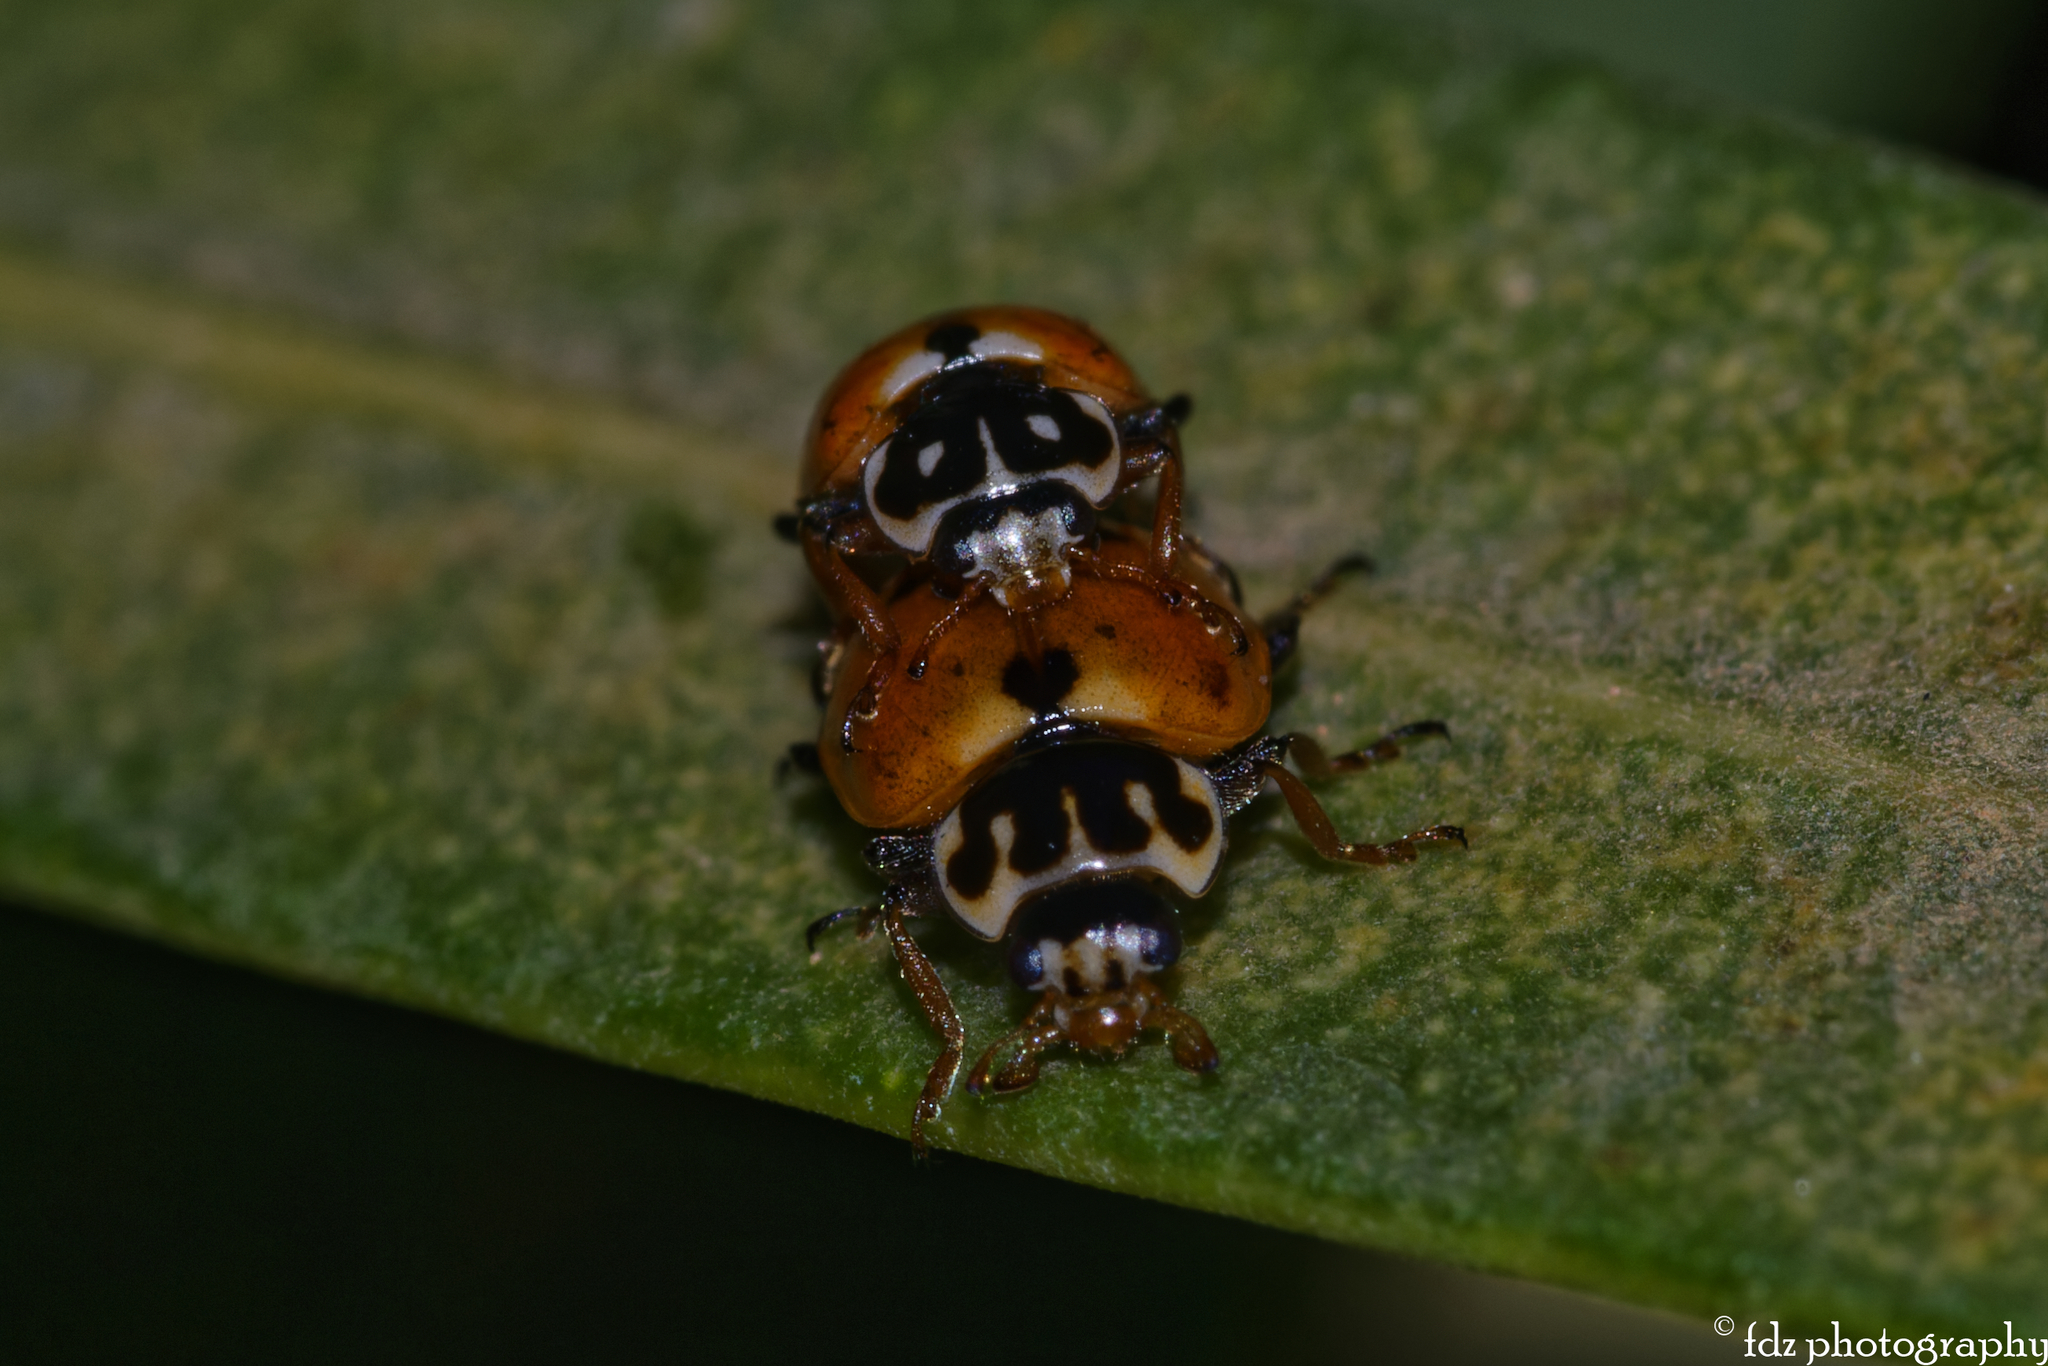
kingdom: Animalia
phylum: Arthropoda
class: Insecta
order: Coleoptera
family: Coccinellidae
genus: Hippodamia
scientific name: Hippodamia variegata
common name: Ladybird beetle
